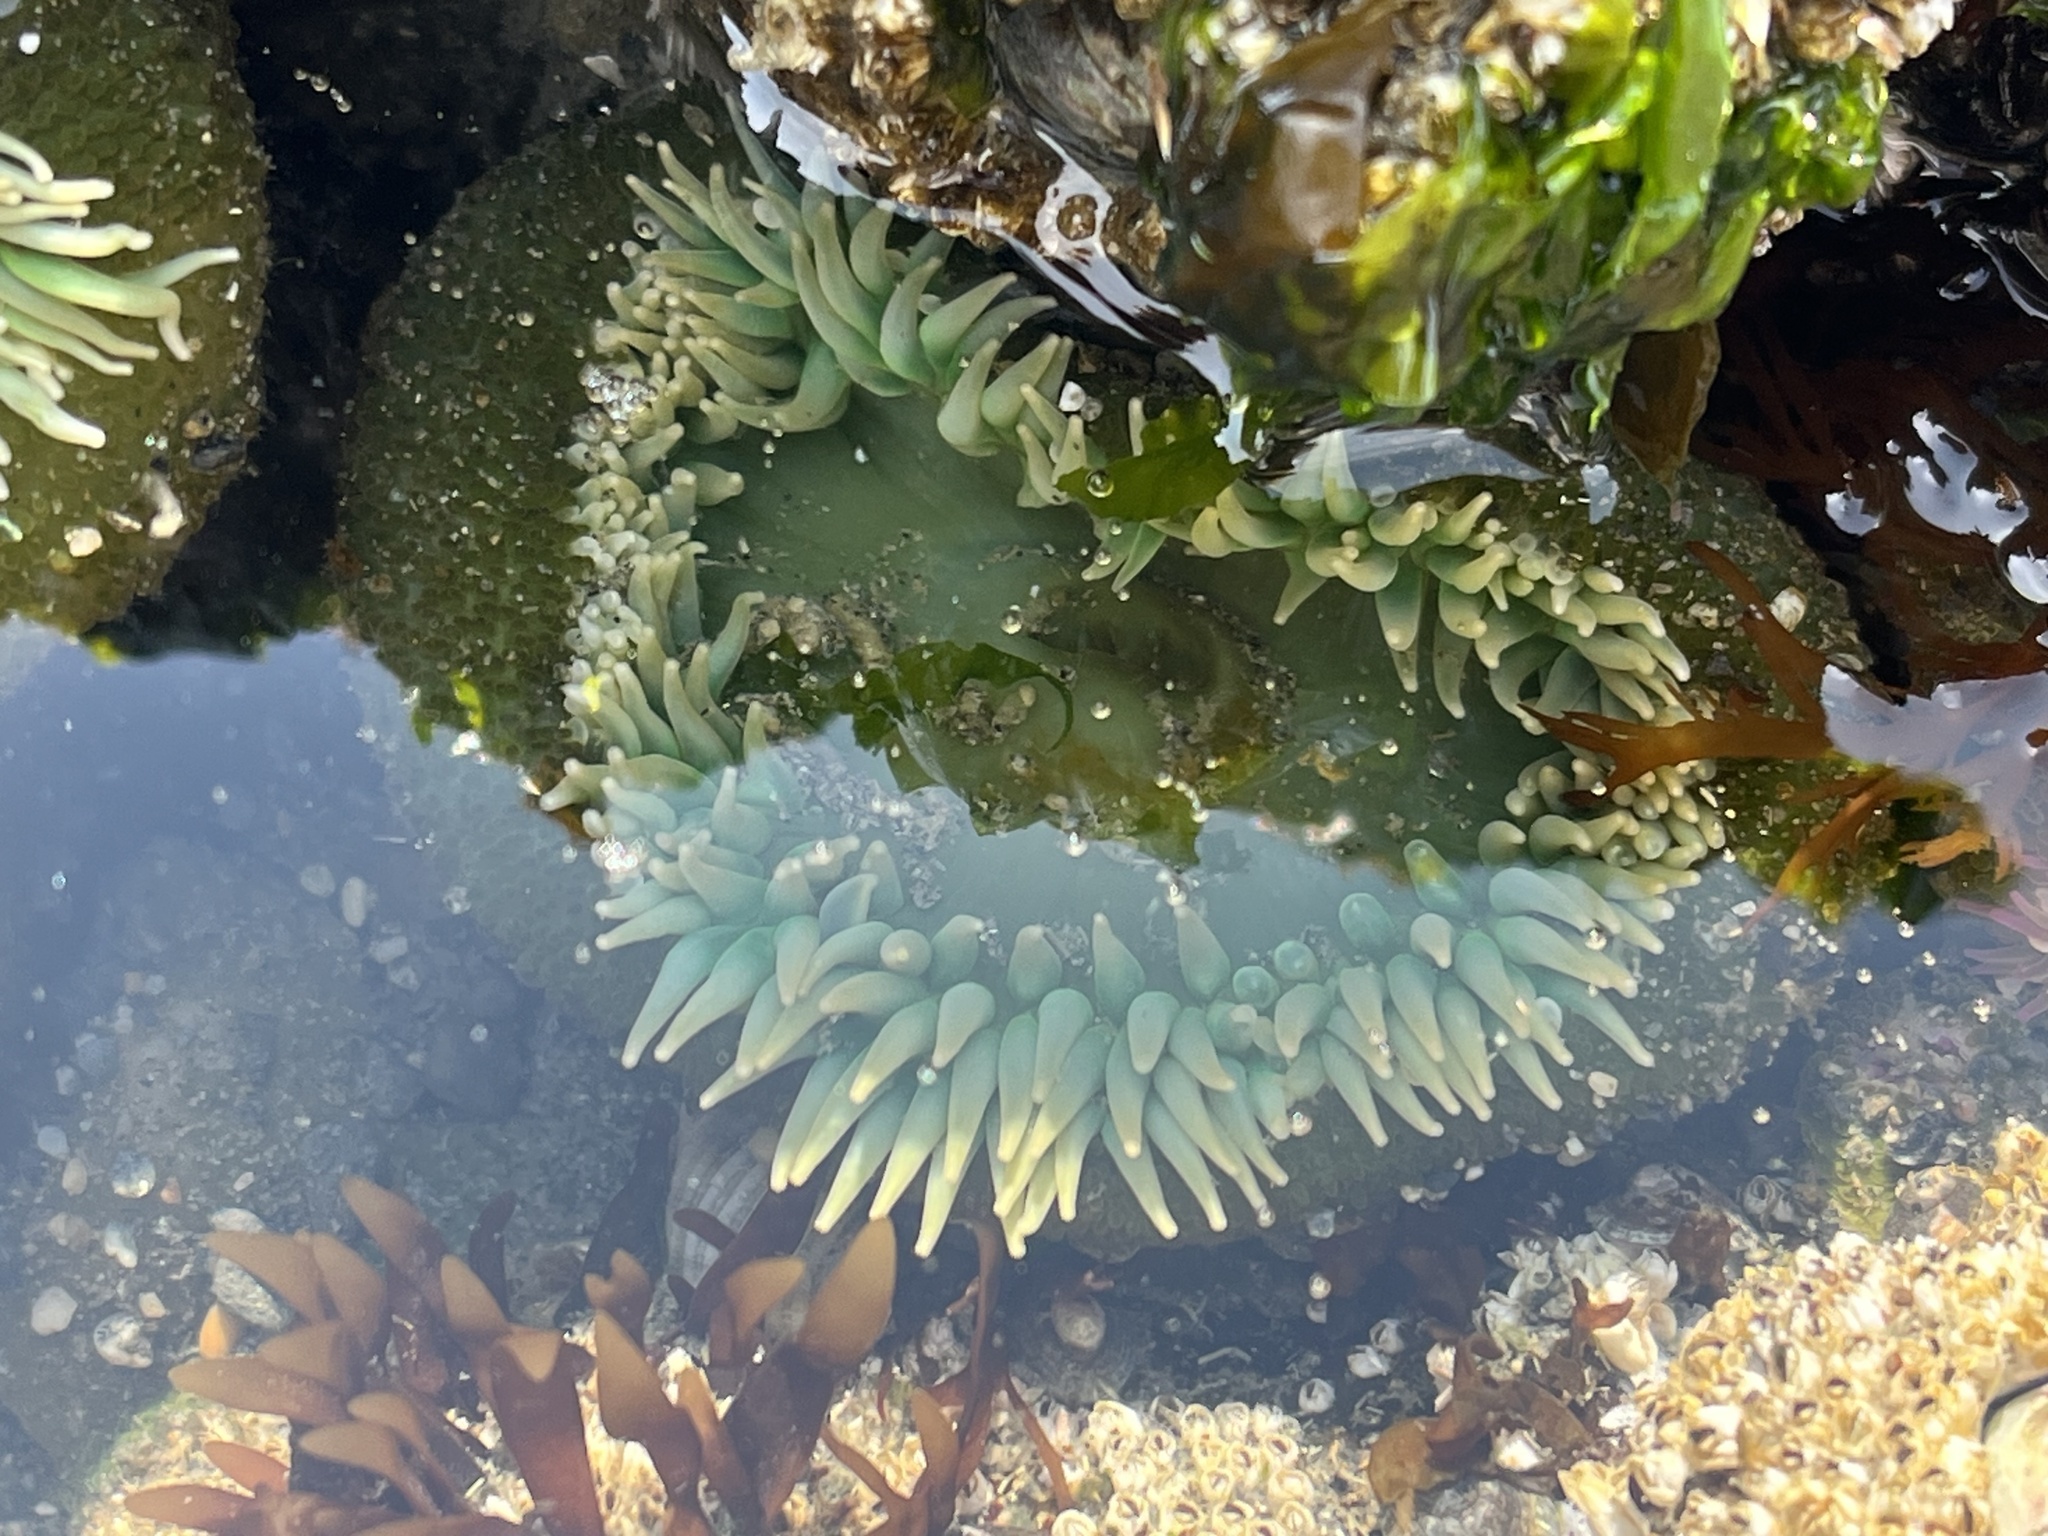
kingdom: Animalia
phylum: Cnidaria
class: Anthozoa
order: Actiniaria
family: Actiniidae
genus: Anthopleura
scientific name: Anthopleura xanthogrammica
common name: Giant green anemone
